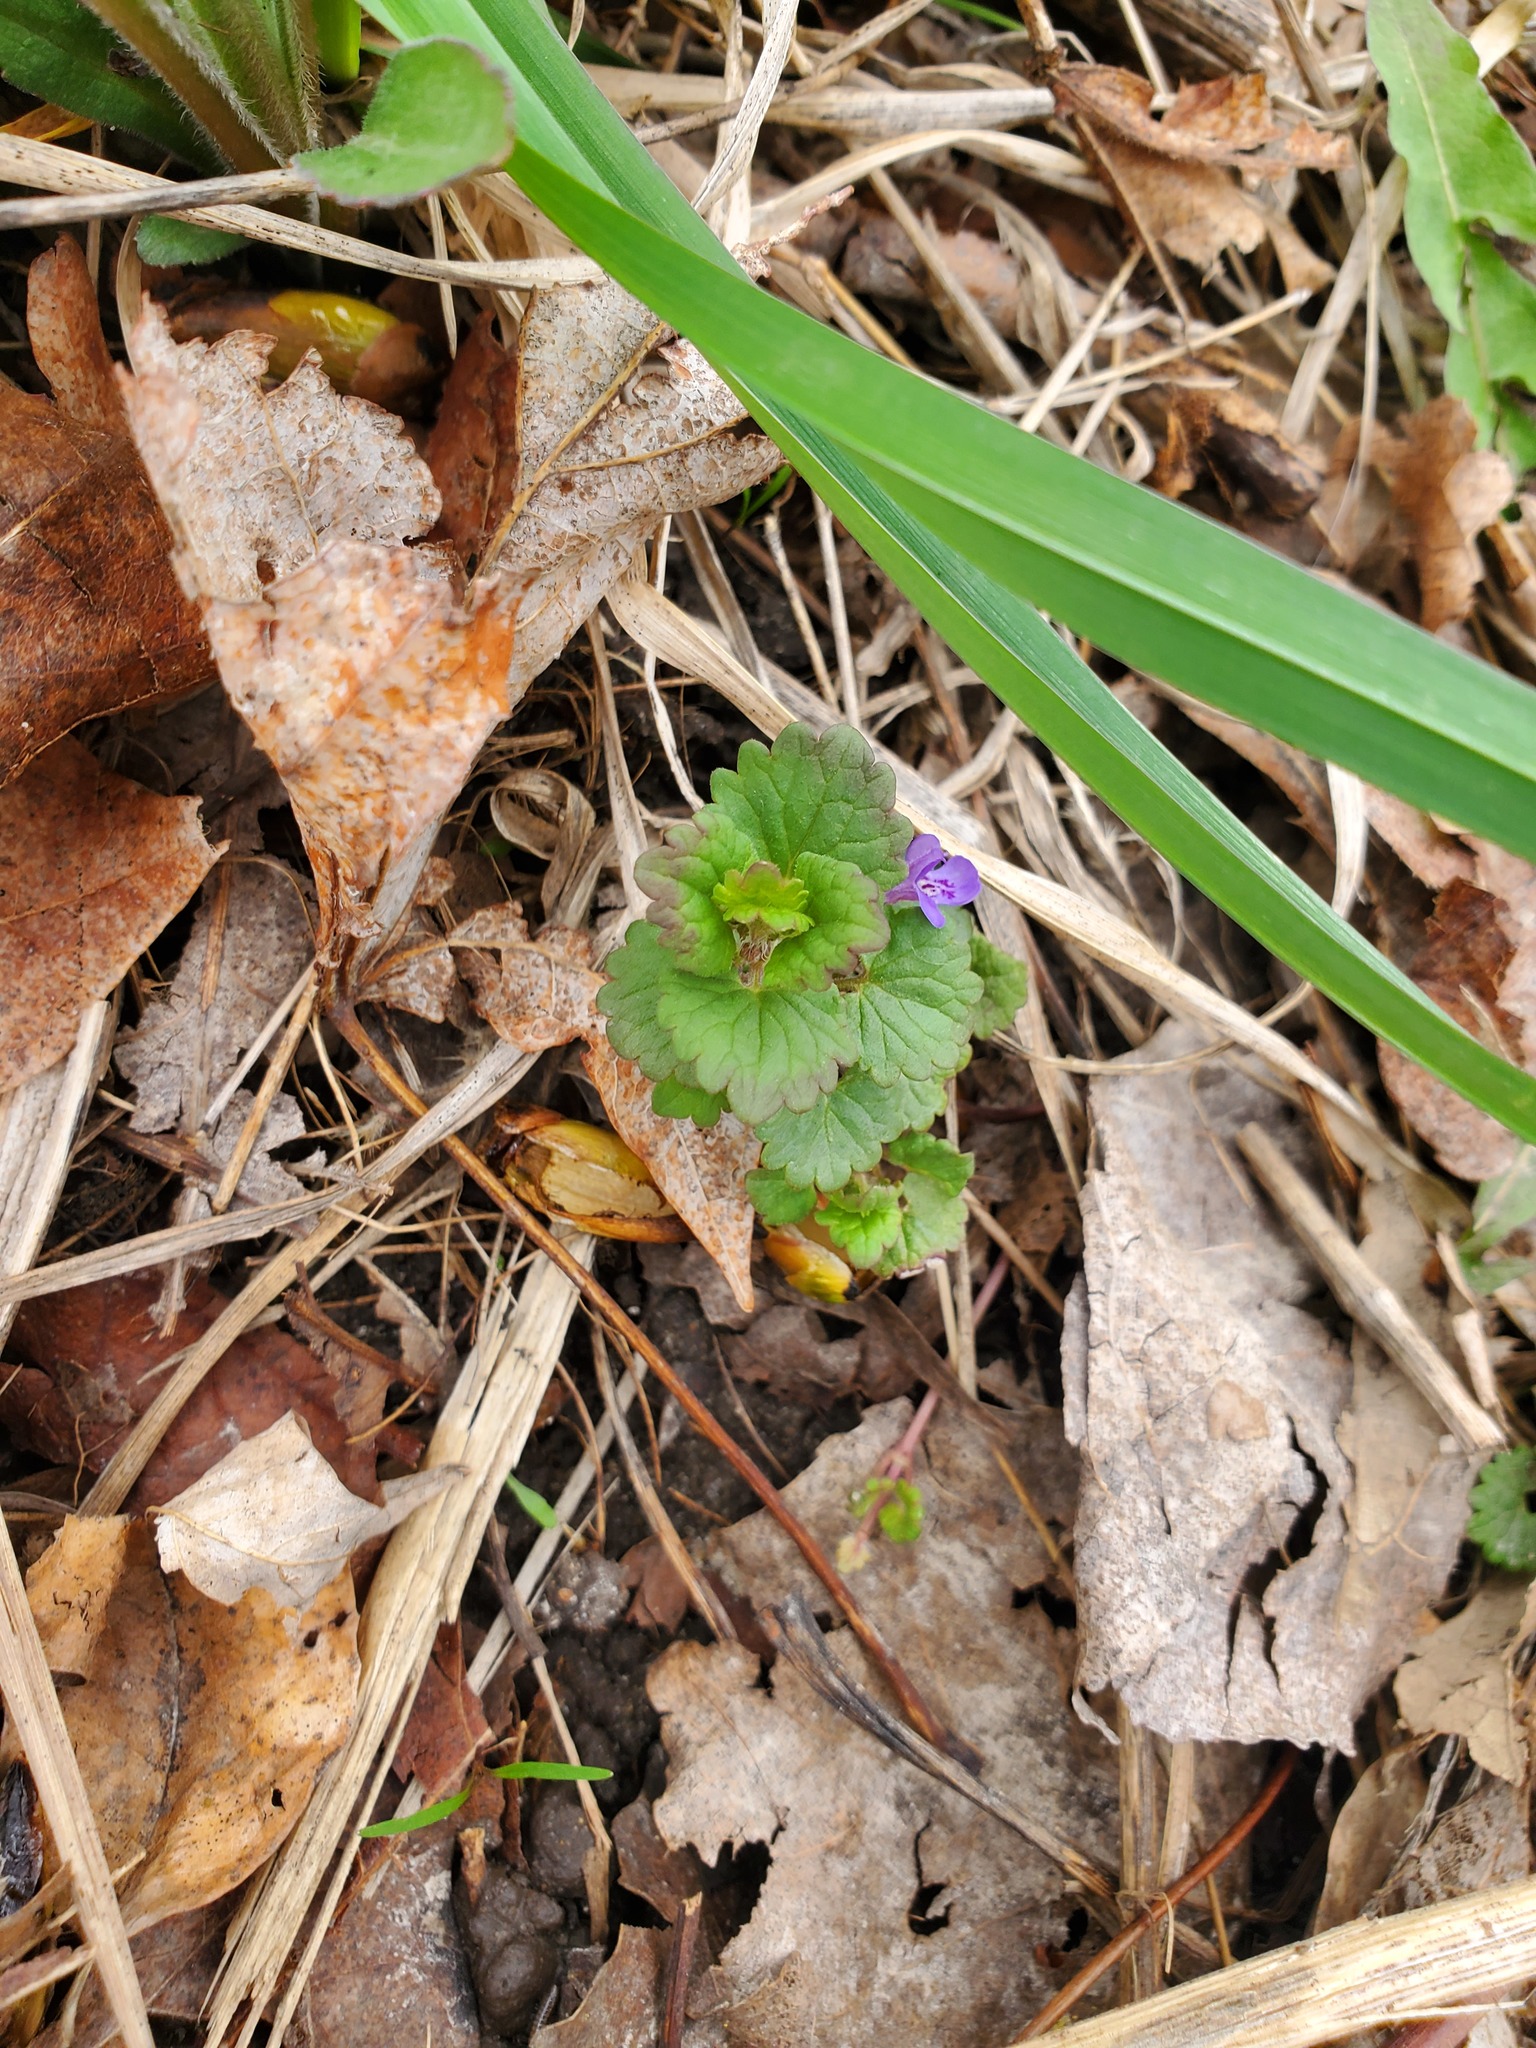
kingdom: Plantae
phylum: Tracheophyta
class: Magnoliopsida
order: Lamiales
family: Lamiaceae
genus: Glechoma
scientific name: Glechoma hederacea
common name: Ground ivy
